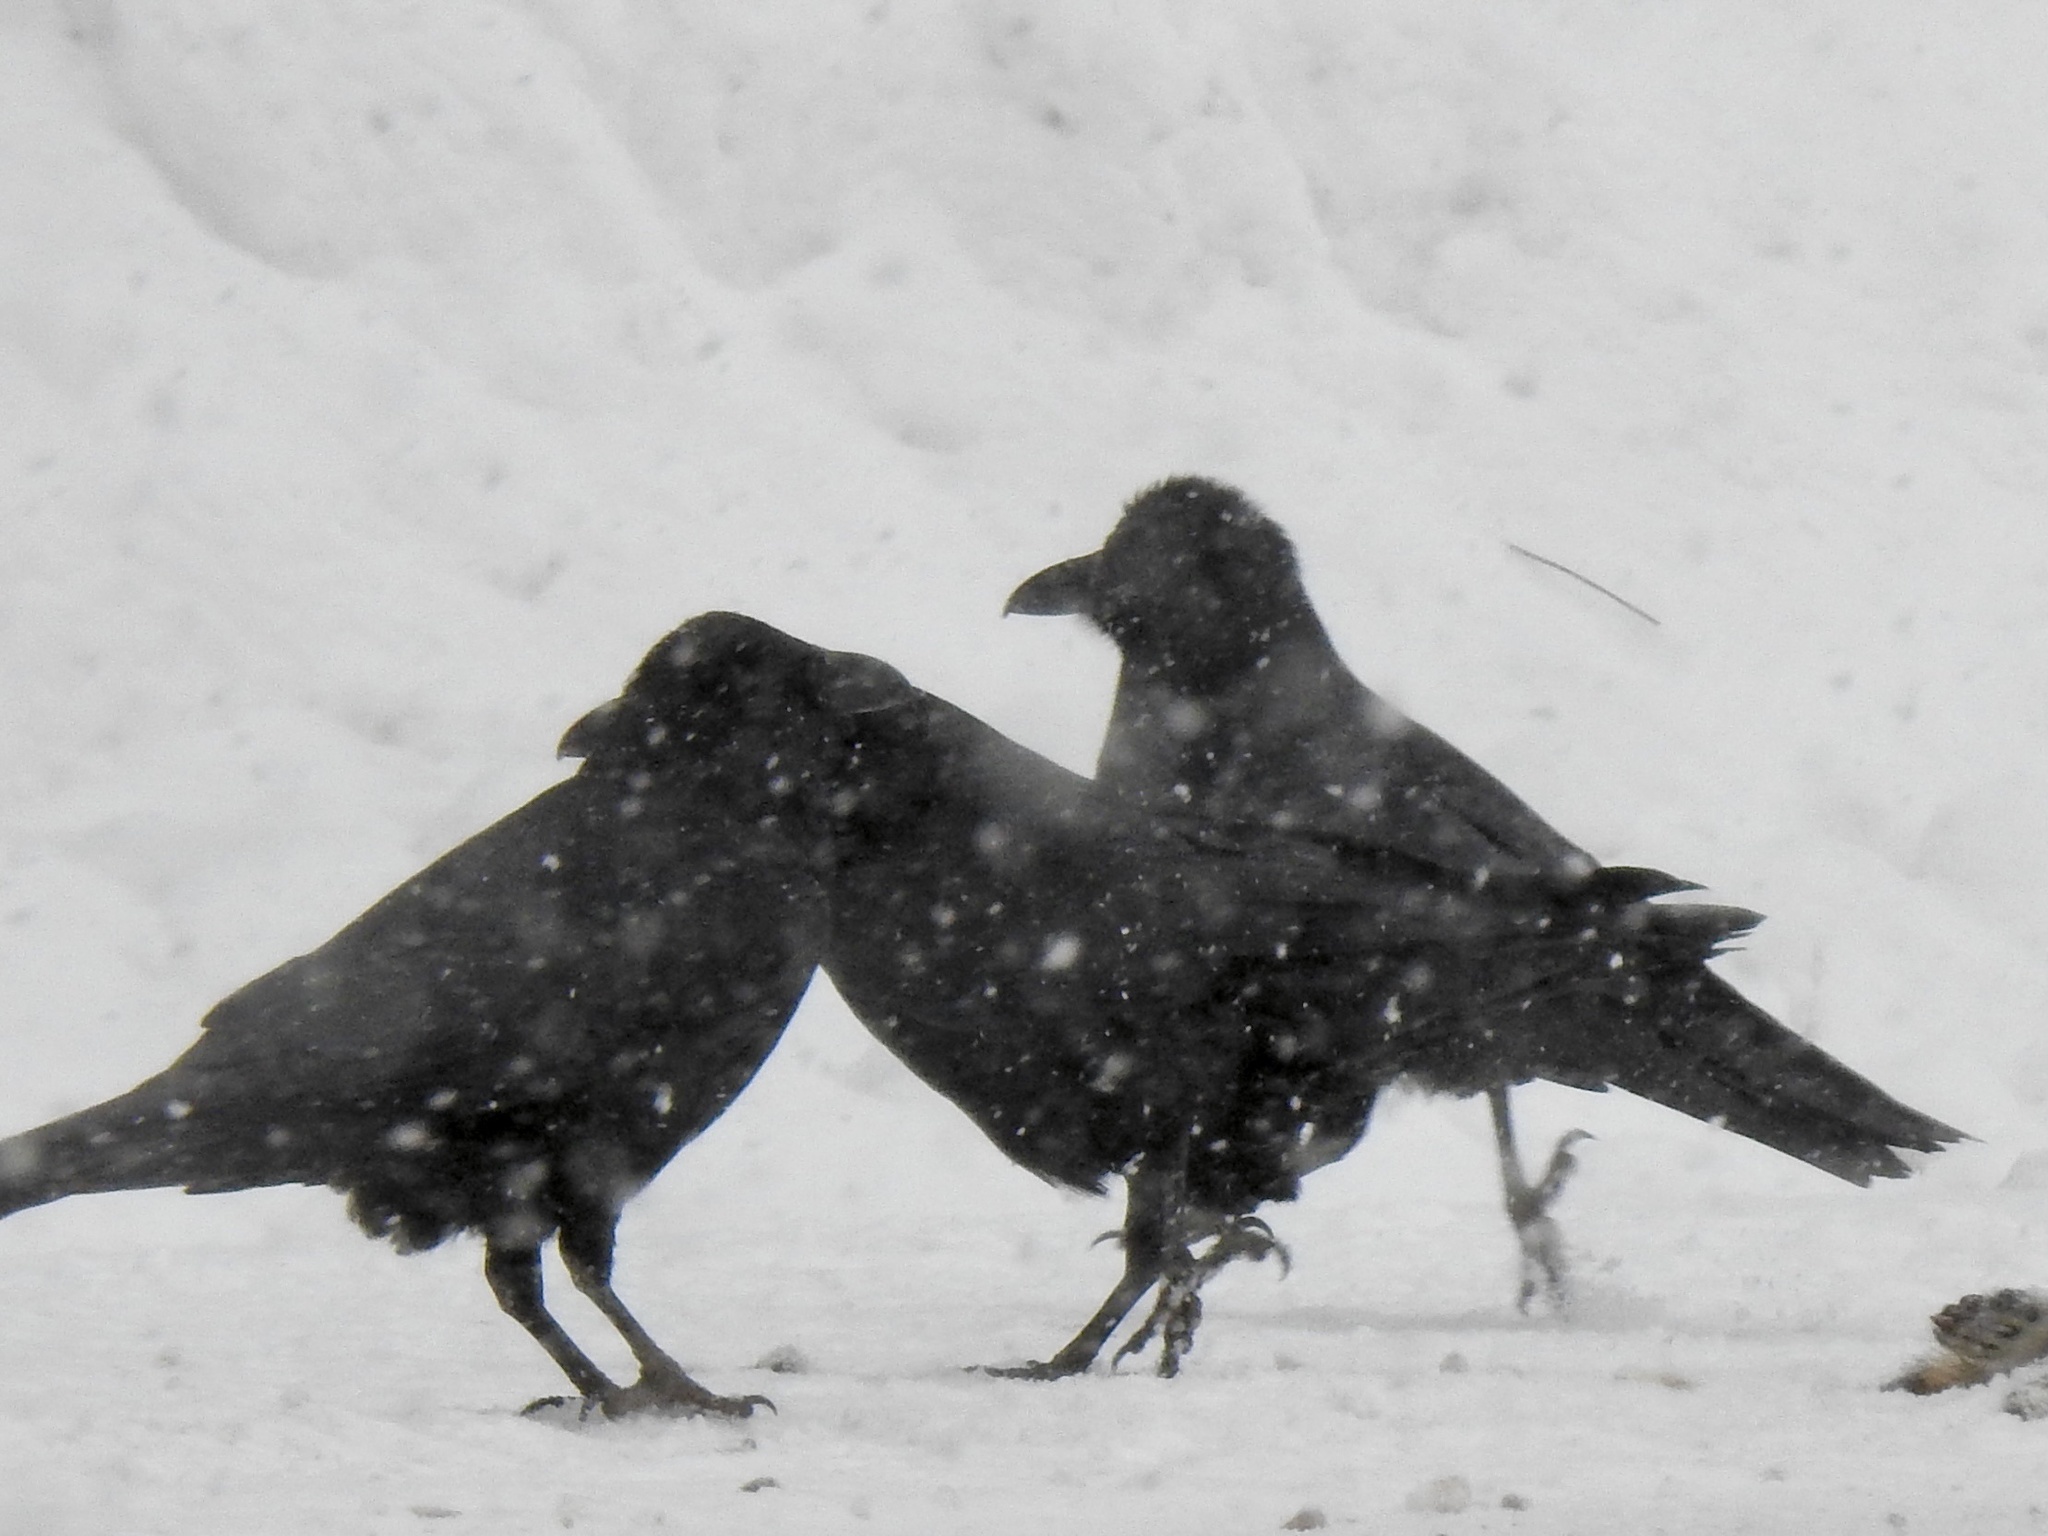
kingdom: Animalia
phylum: Chordata
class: Aves
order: Passeriformes
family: Corvidae
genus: Corvus
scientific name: Corvus corax
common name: Common raven
